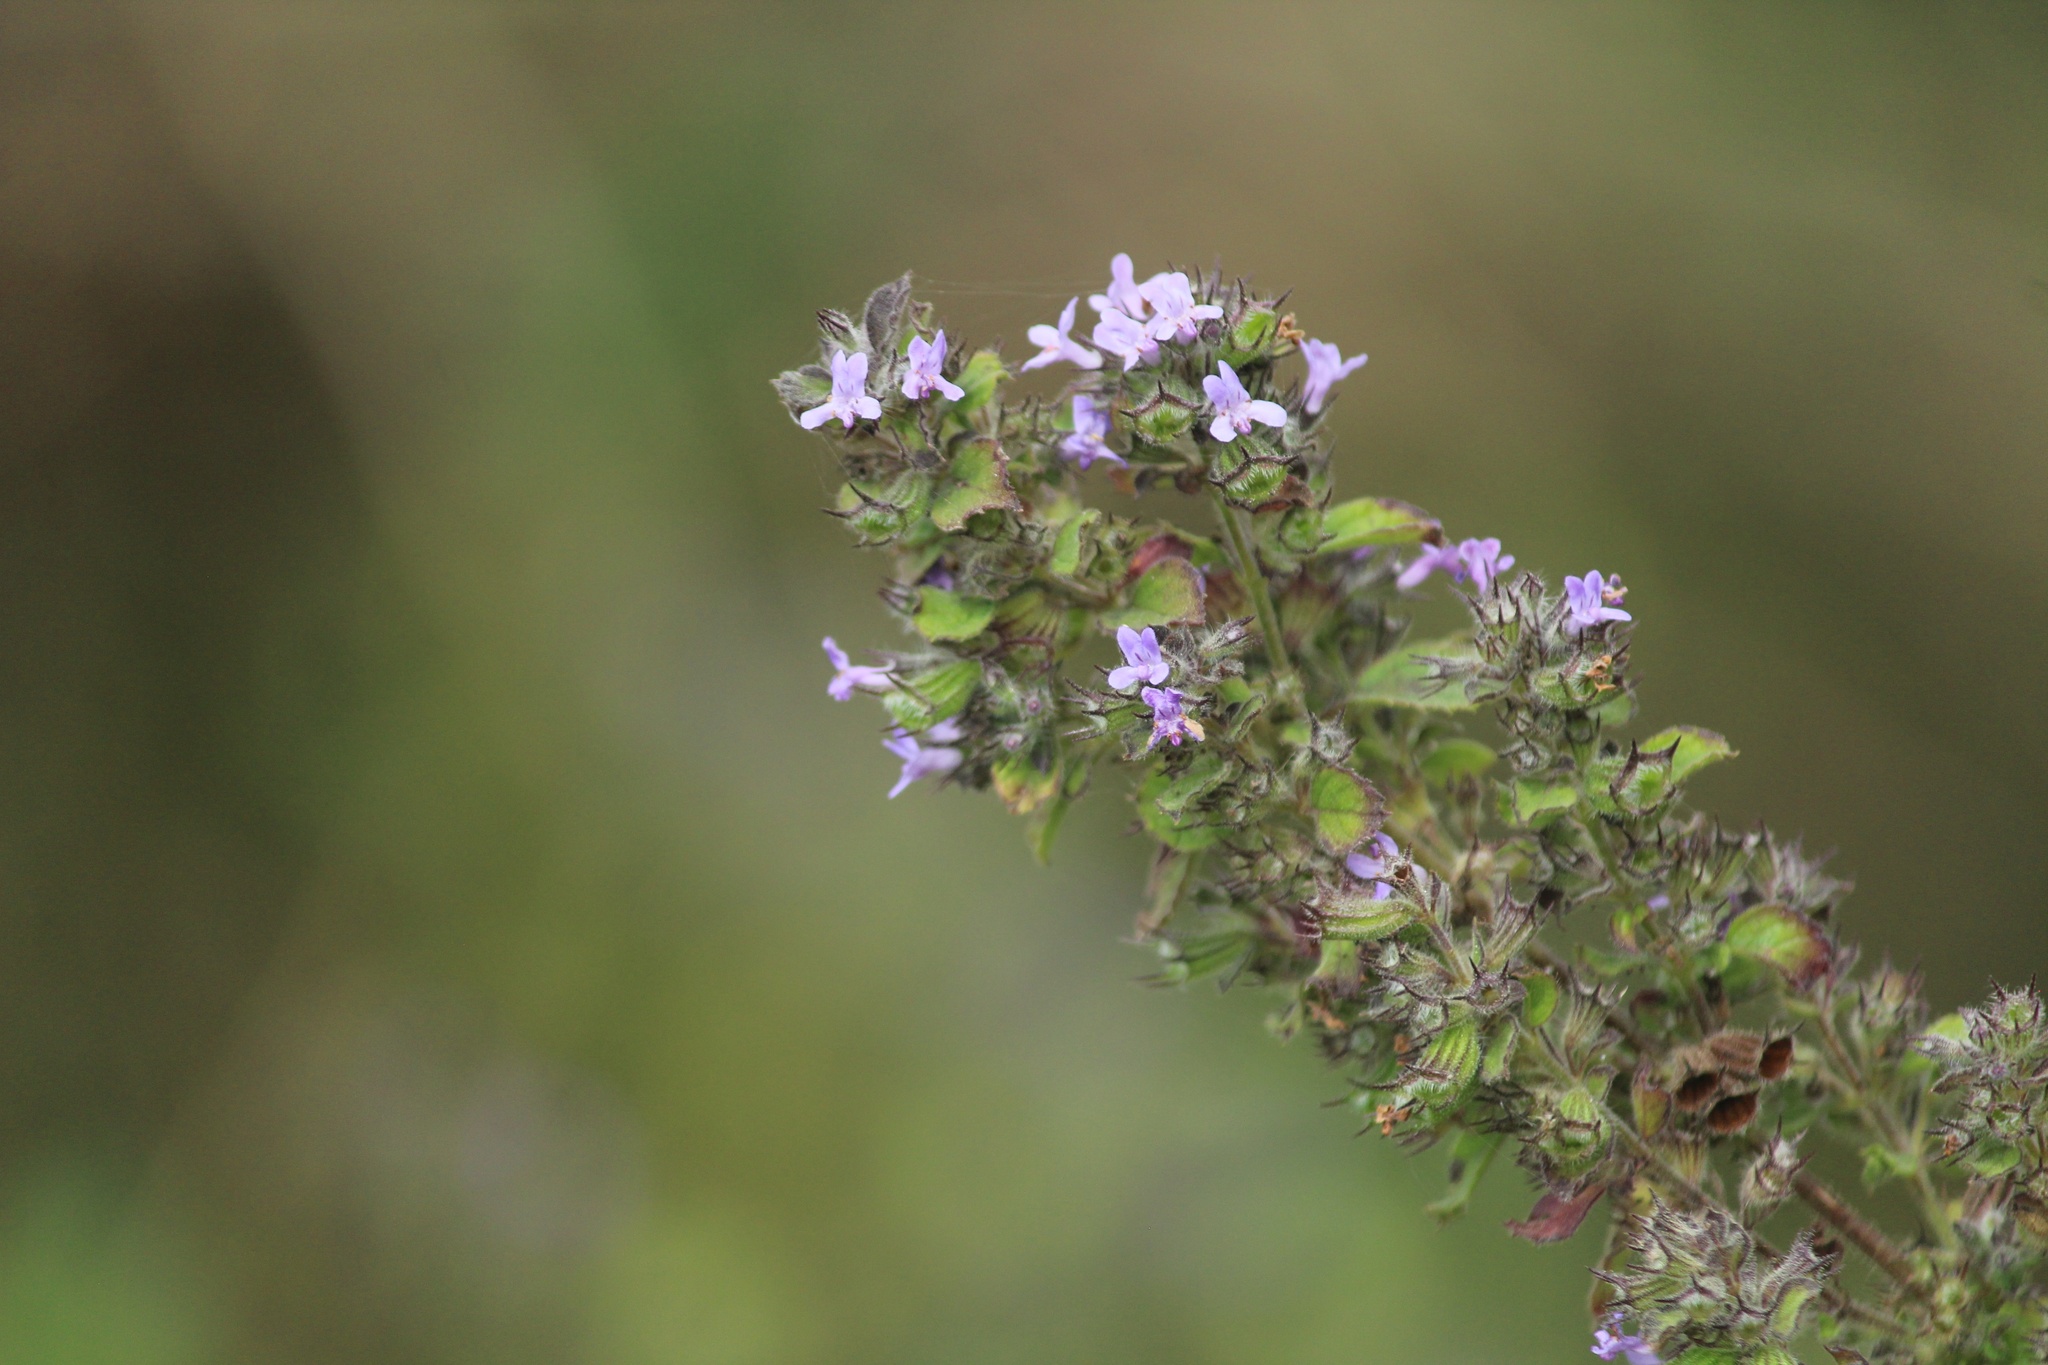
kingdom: Plantae
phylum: Tracheophyta
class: Magnoliopsida
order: Lamiales
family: Lamiaceae
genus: Mesosphaerum
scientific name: Mesosphaerum suaveolens
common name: Pignut
